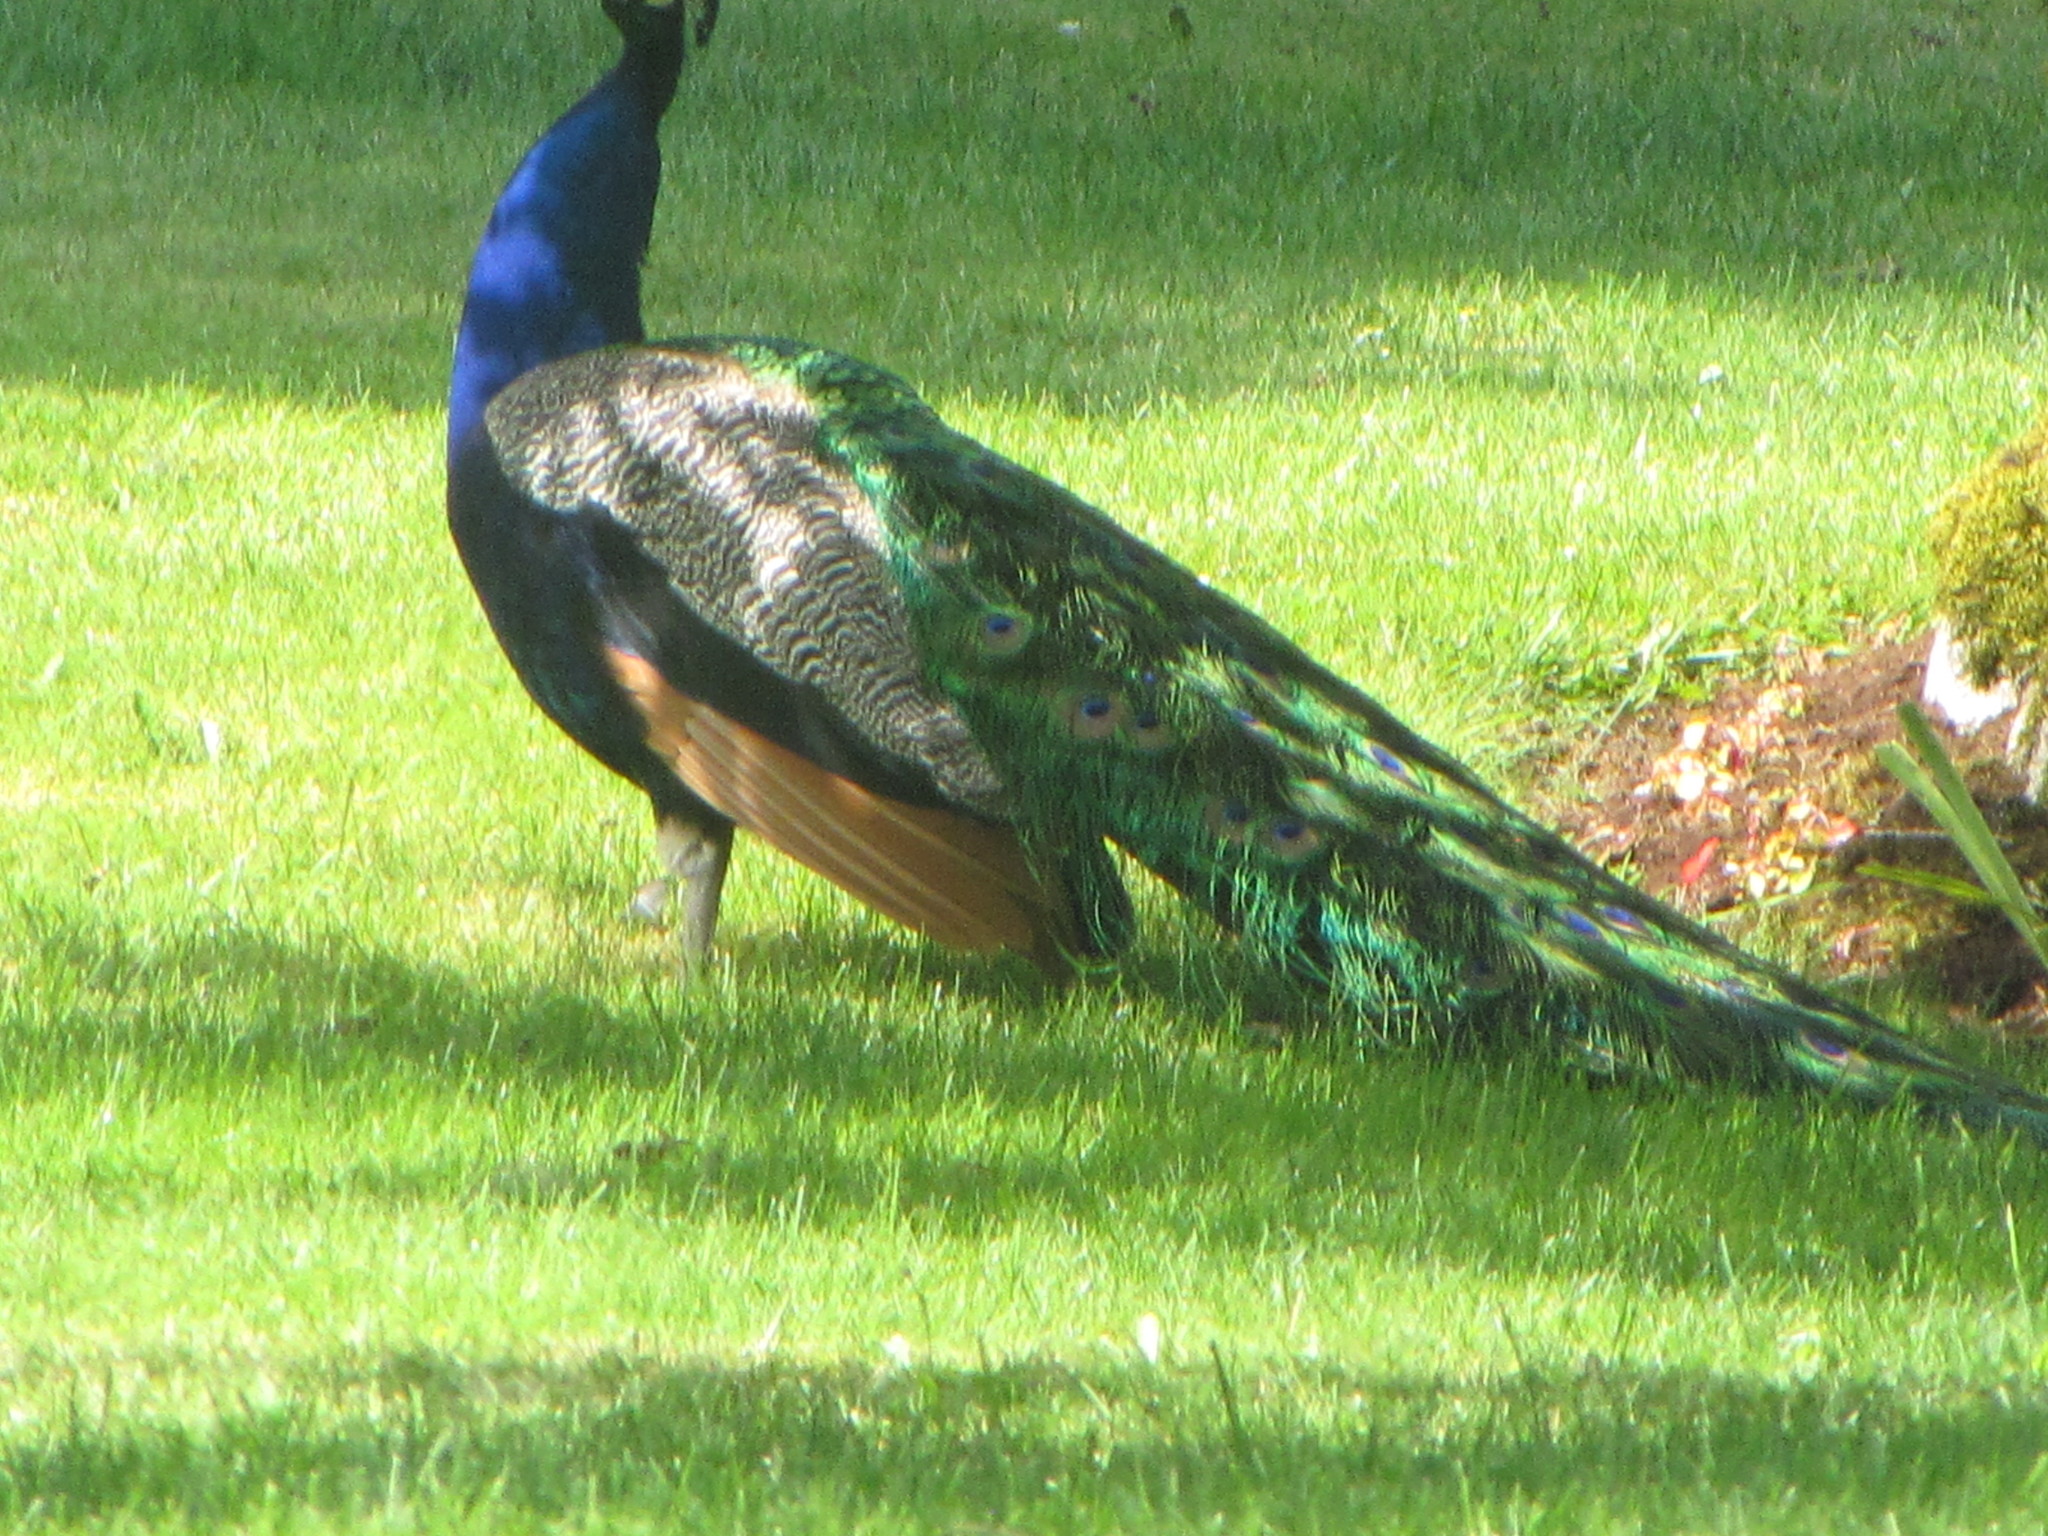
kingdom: Animalia
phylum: Chordata
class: Aves
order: Galliformes
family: Phasianidae
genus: Pavo
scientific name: Pavo cristatus
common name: Indian peafowl
